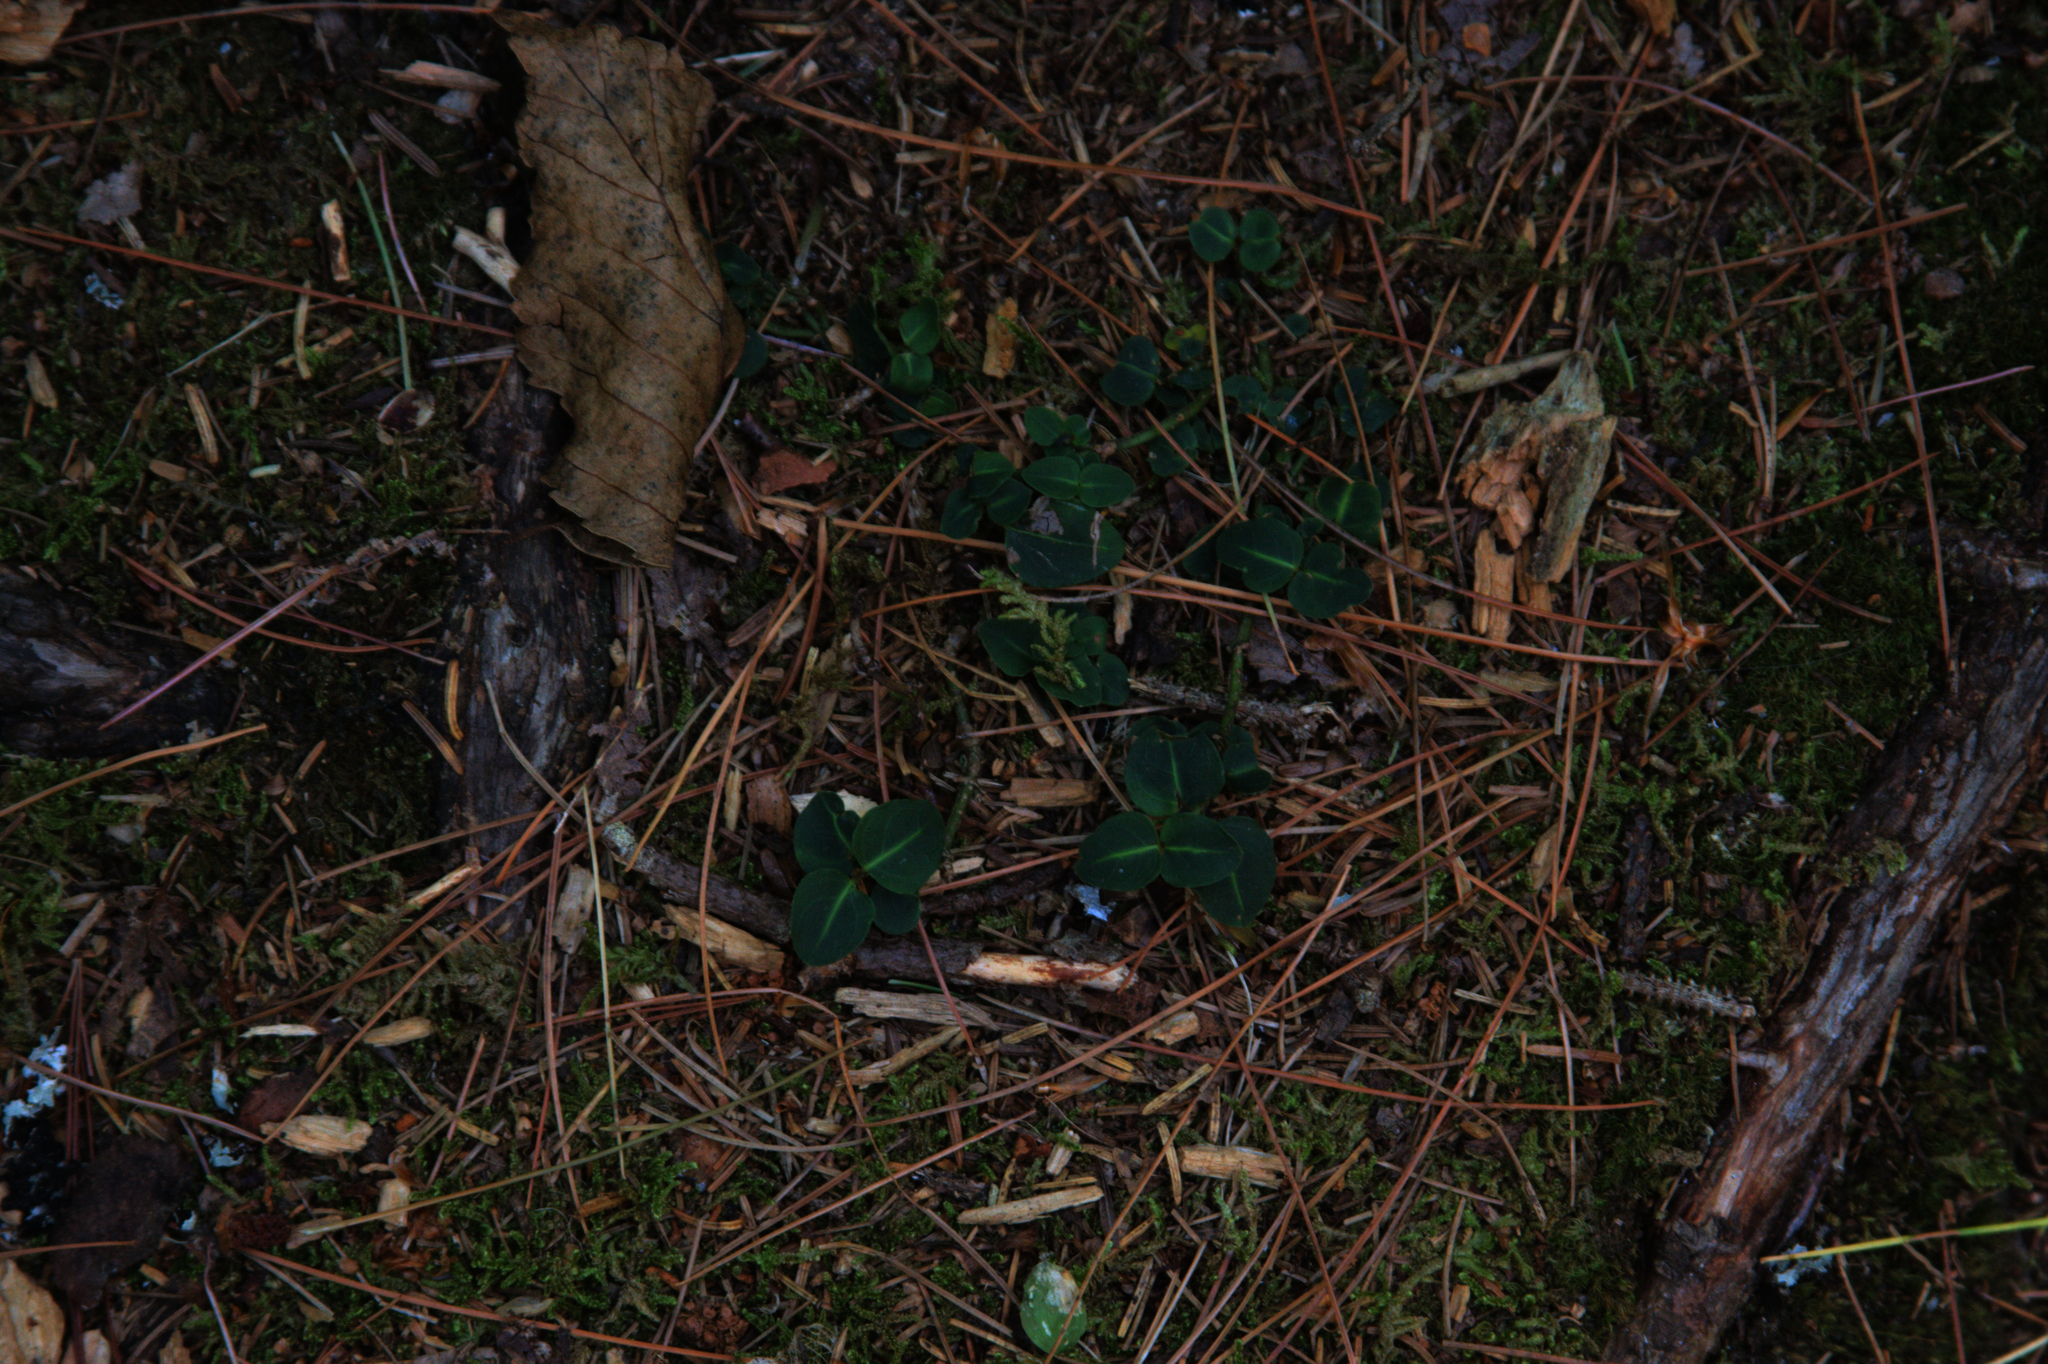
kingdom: Plantae
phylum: Tracheophyta
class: Magnoliopsida
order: Gentianales
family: Rubiaceae
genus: Mitchella
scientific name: Mitchella repens
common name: Partridge-berry
